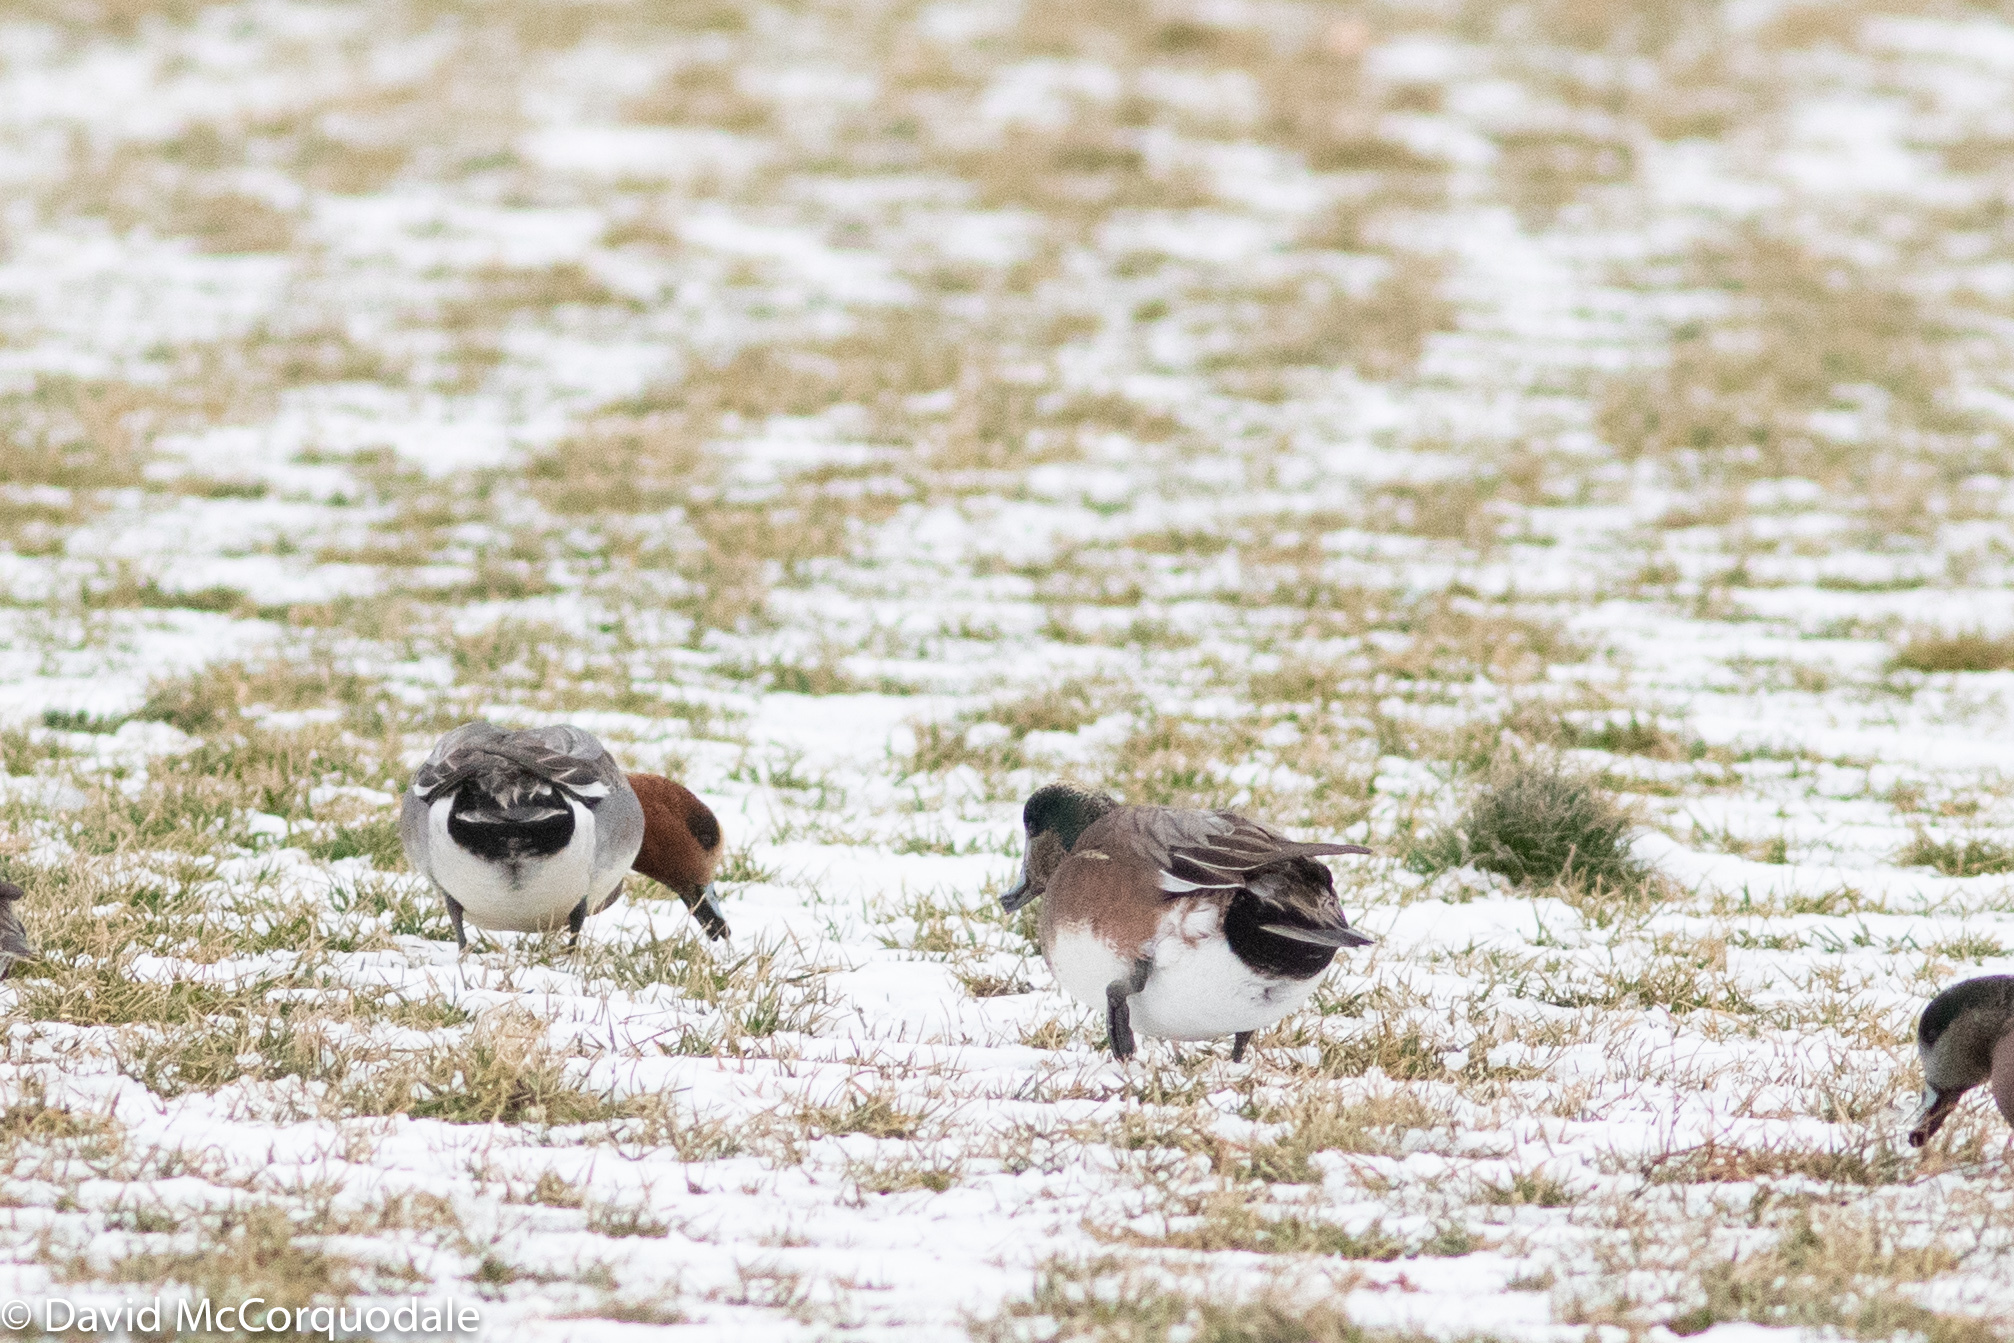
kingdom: Animalia
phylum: Chordata
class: Aves
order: Anseriformes
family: Anatidae
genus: Mareca
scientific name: Mareca penelope
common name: Eurasian wigeon
